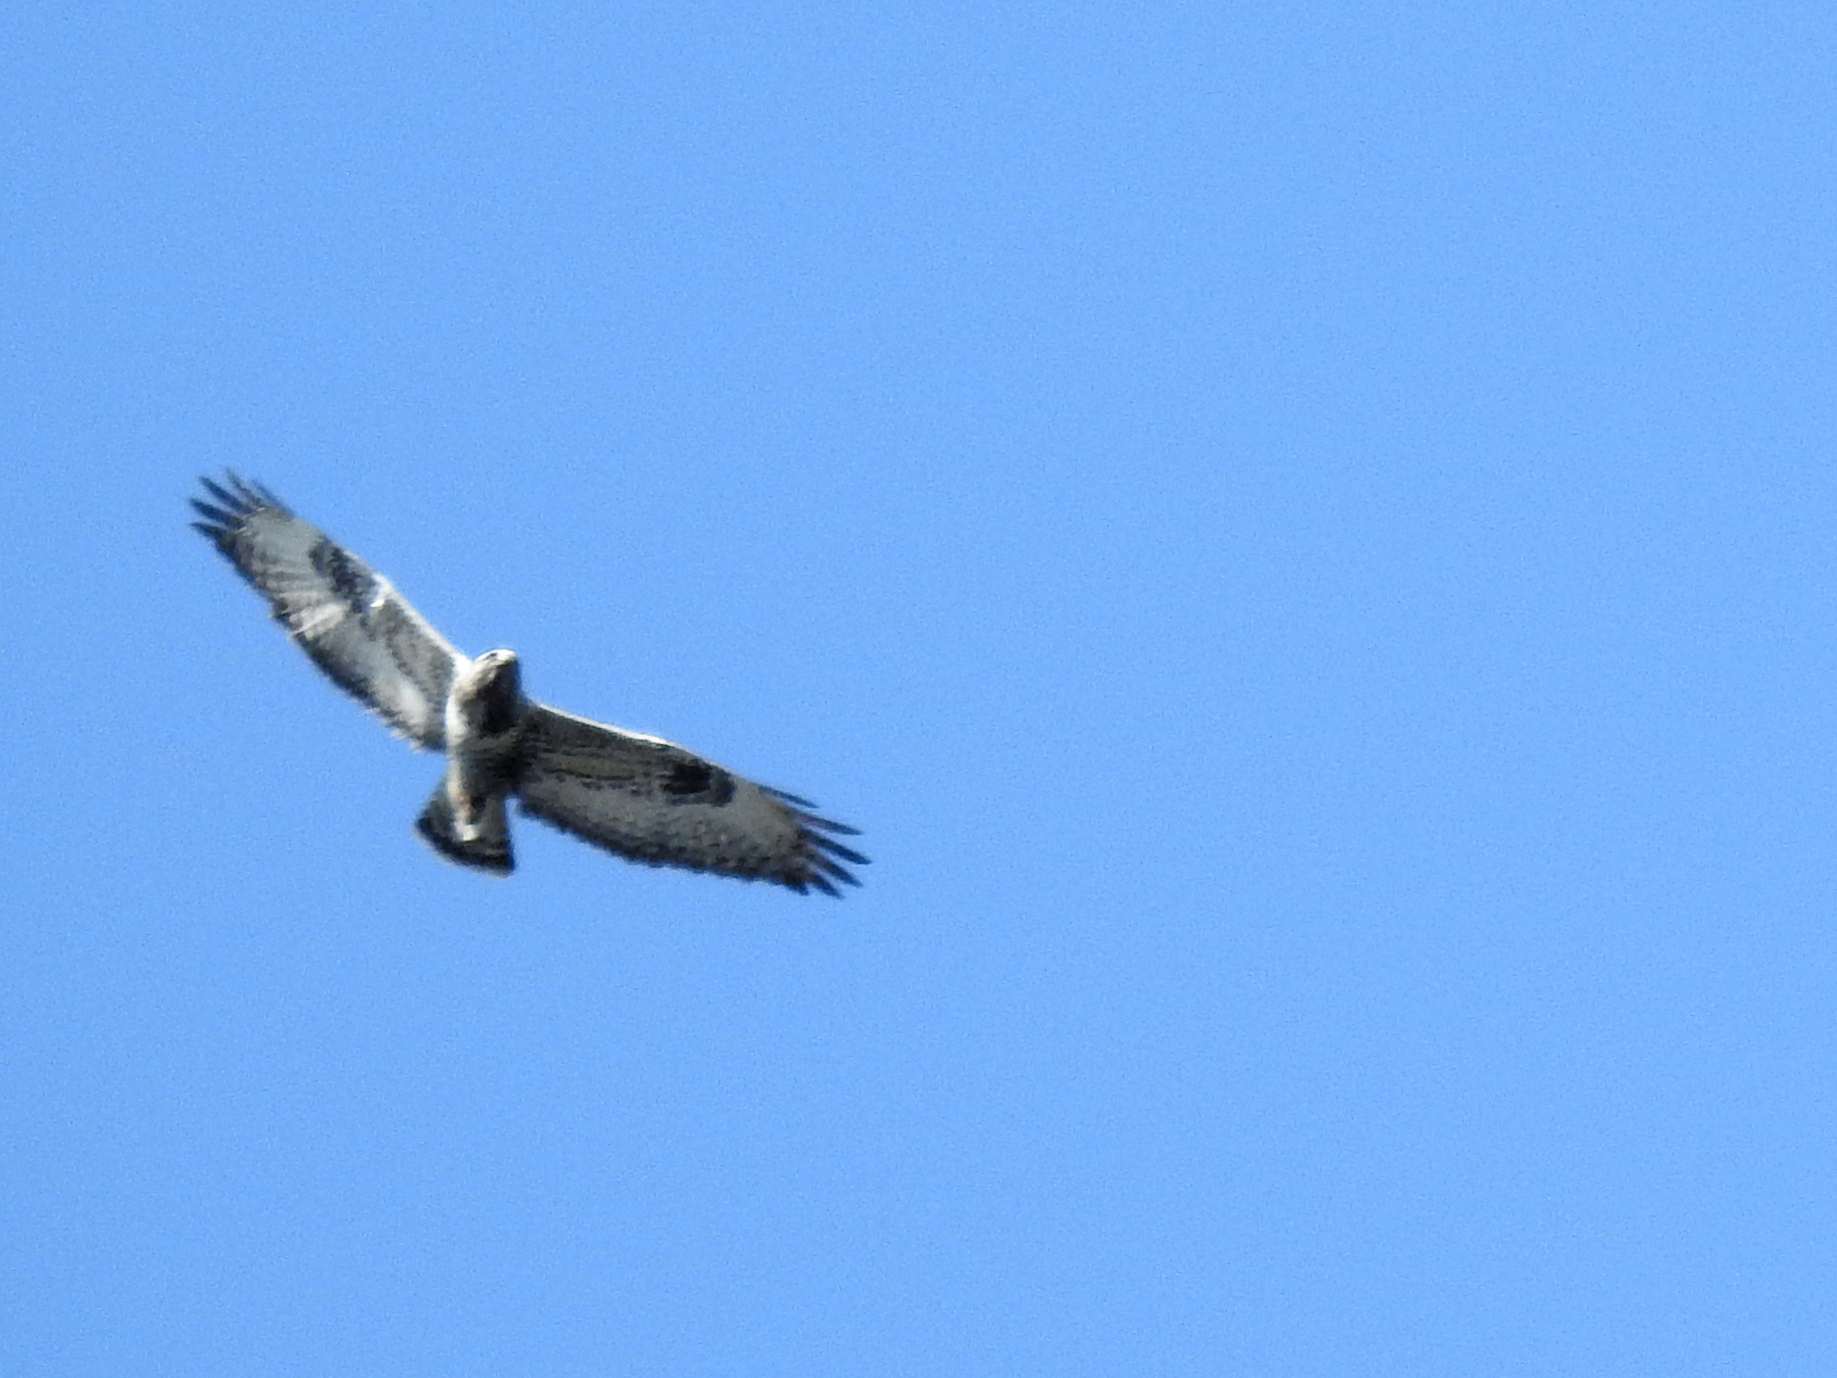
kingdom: Animalia
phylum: Chordata
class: Aves
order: Accipitriformes
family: Accipitridae
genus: Buteo
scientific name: Buteo lagopus
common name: Rough-legged buzzard
